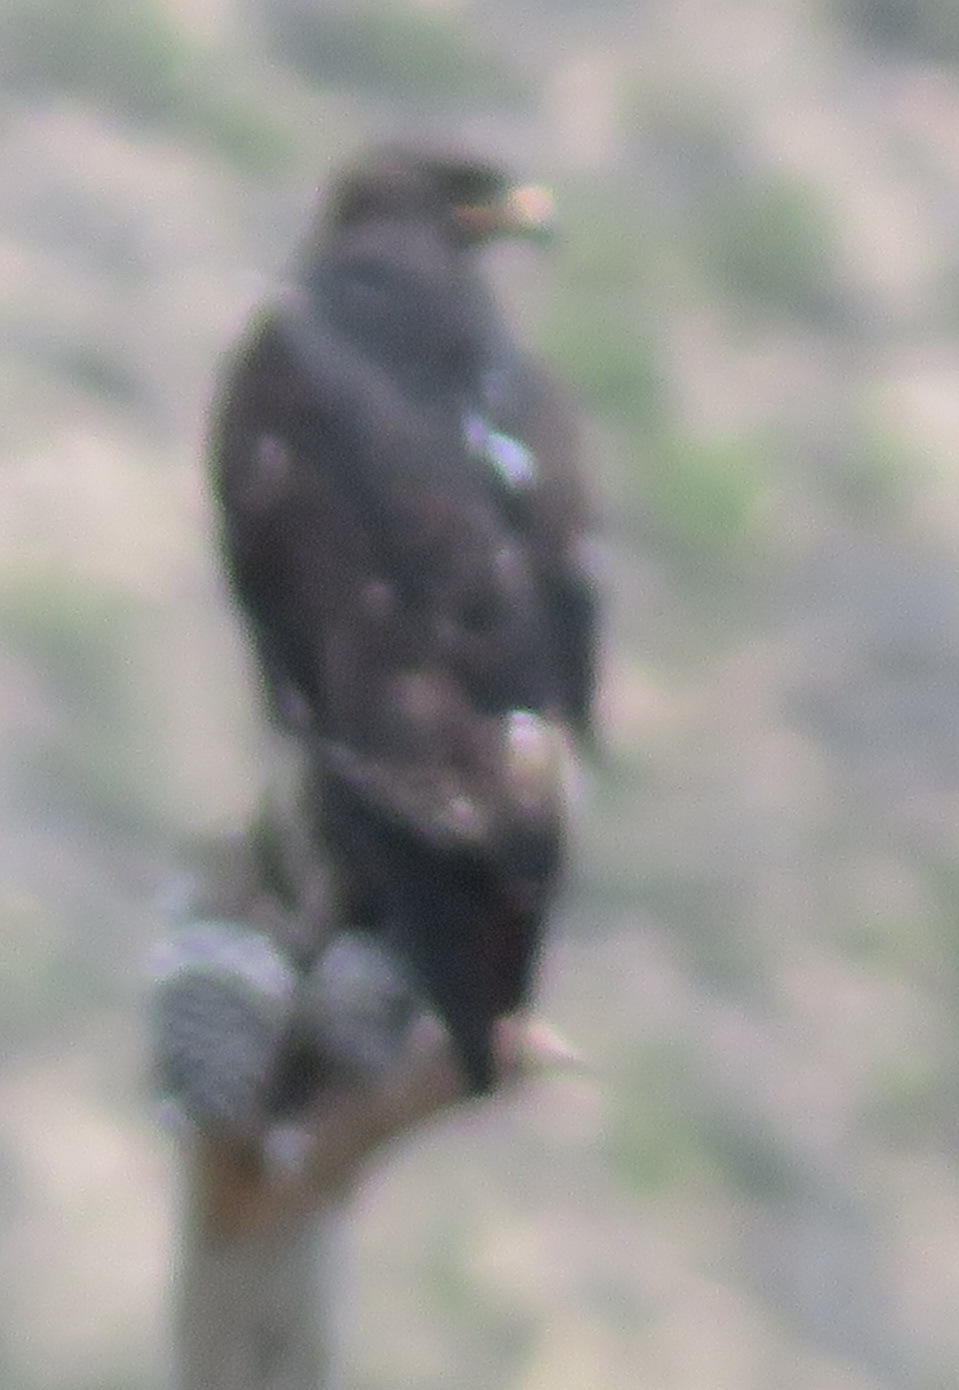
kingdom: Animalia
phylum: Chordata
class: Aves
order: Accipitriformes
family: Accipitridae
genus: Buteo
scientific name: Buteo rufofuscus
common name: Jackal buzzard
